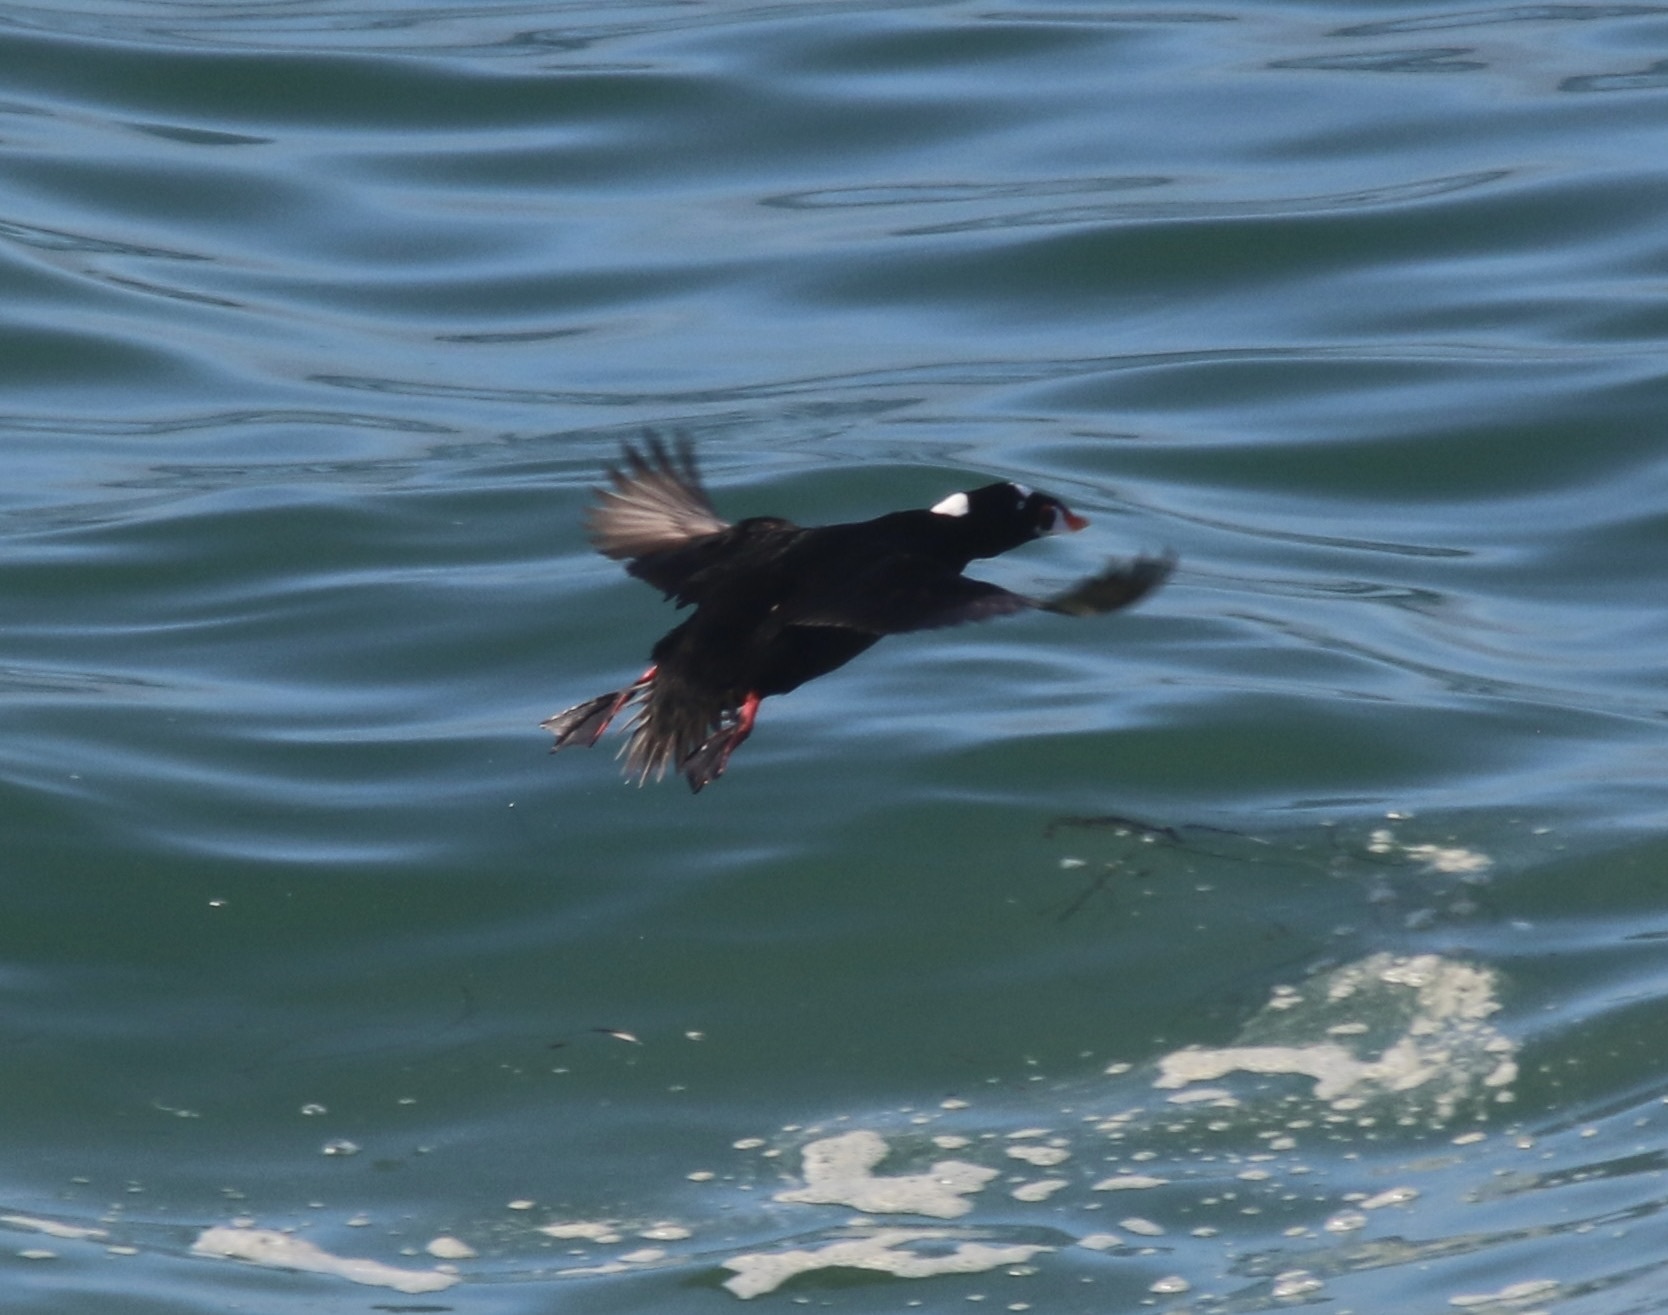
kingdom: Animalia
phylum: Chordata
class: Aves
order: Anseriformes
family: Anatidae
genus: Melanitta
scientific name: Melanitta perspicillata
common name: Surf scoter
